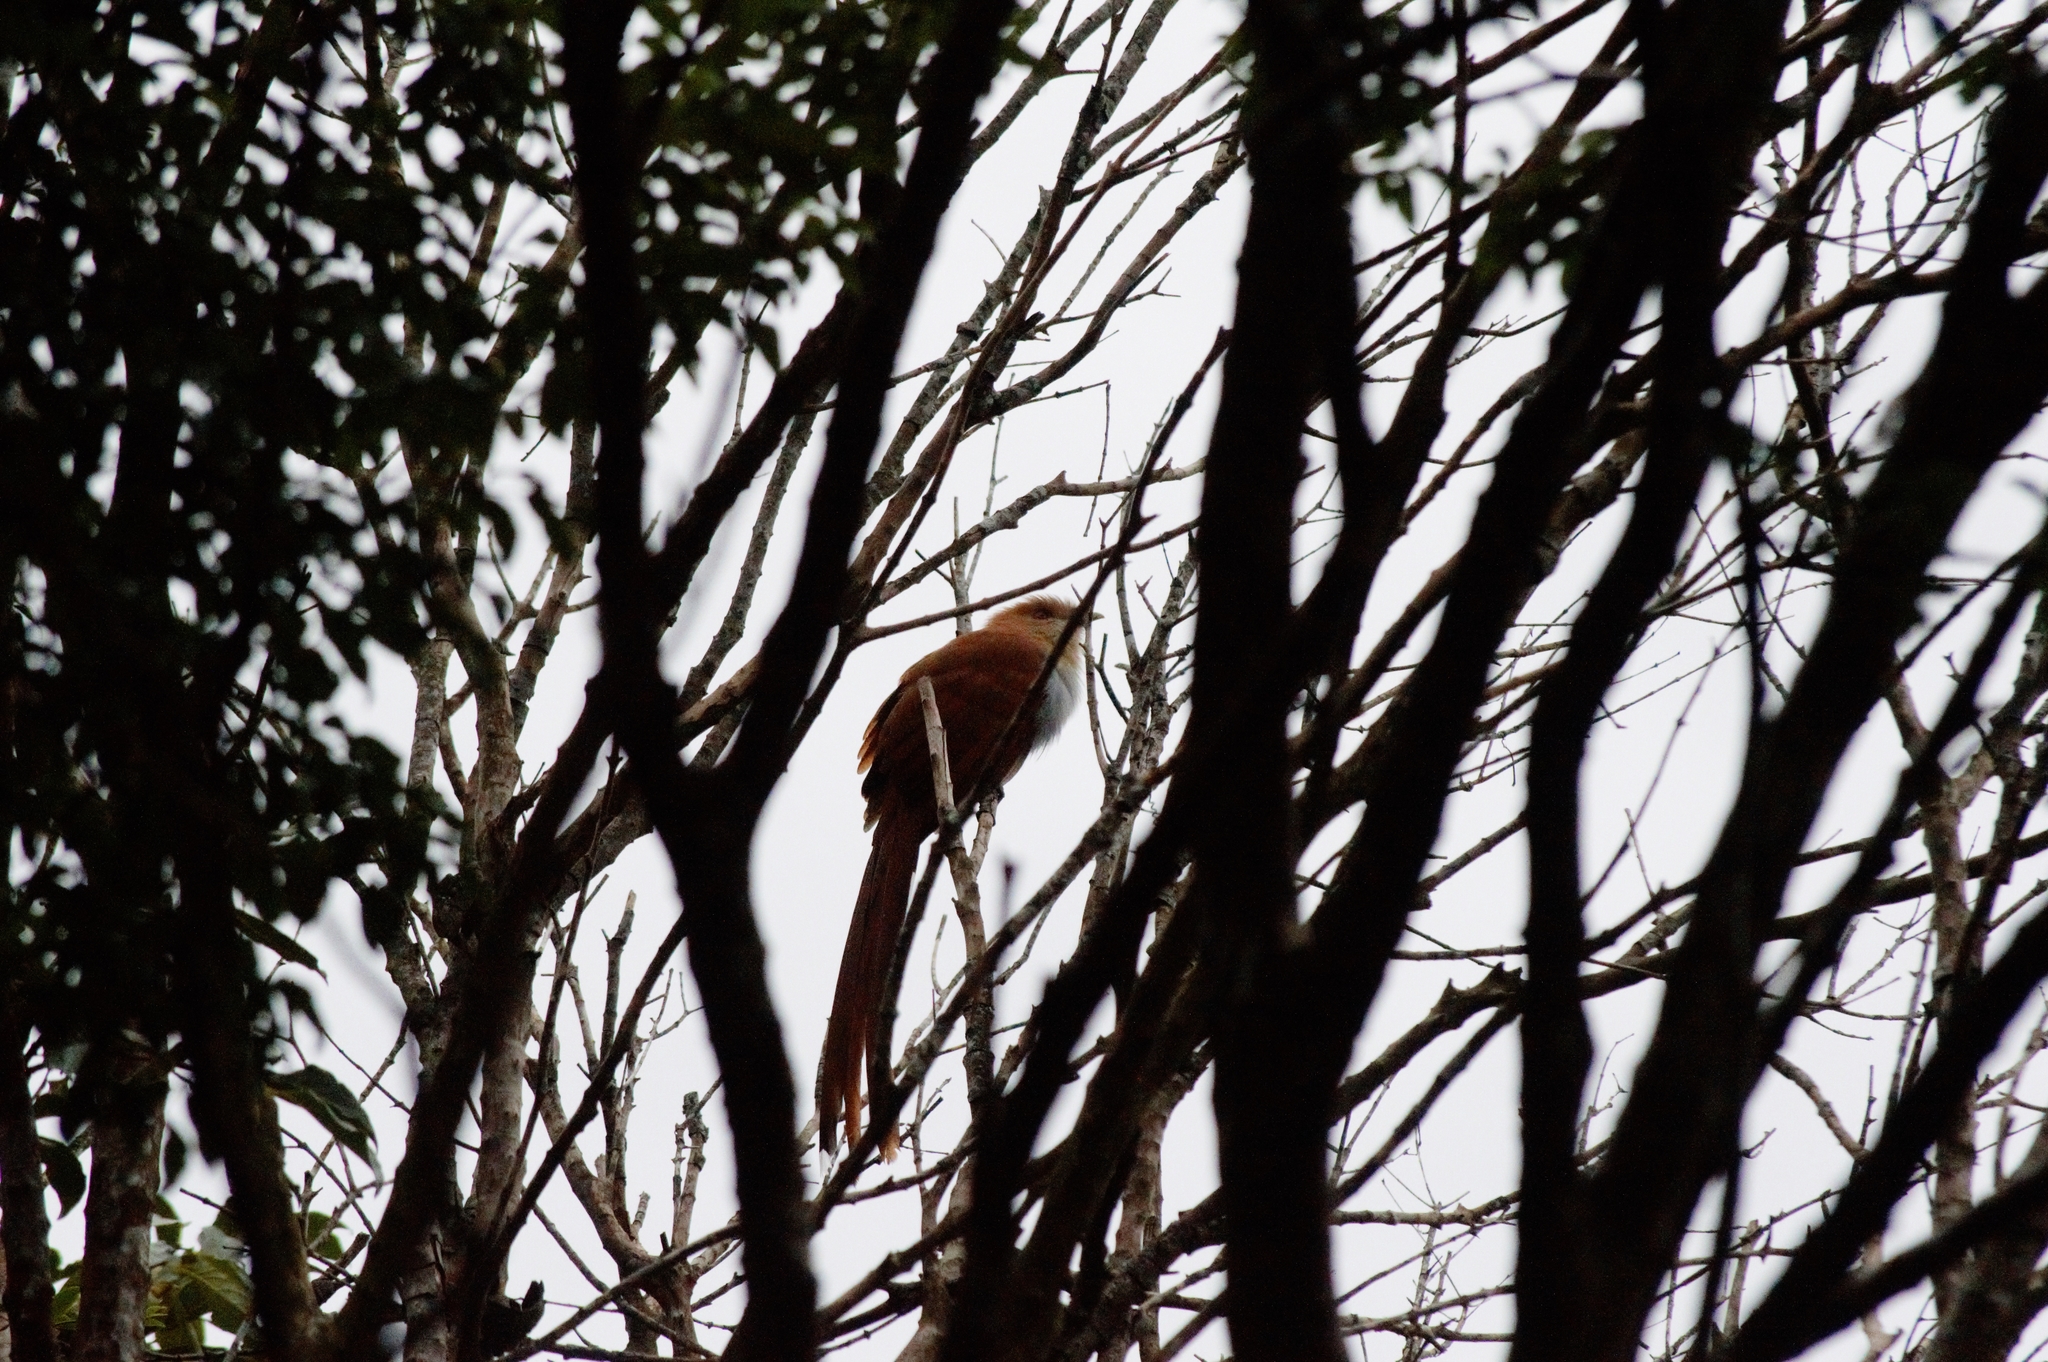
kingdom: Animalia
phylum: Chordata
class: Aves
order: Cuculiformes
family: Cuculidae
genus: Piaya
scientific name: Piaya cayana
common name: Squirrel cuckoo
